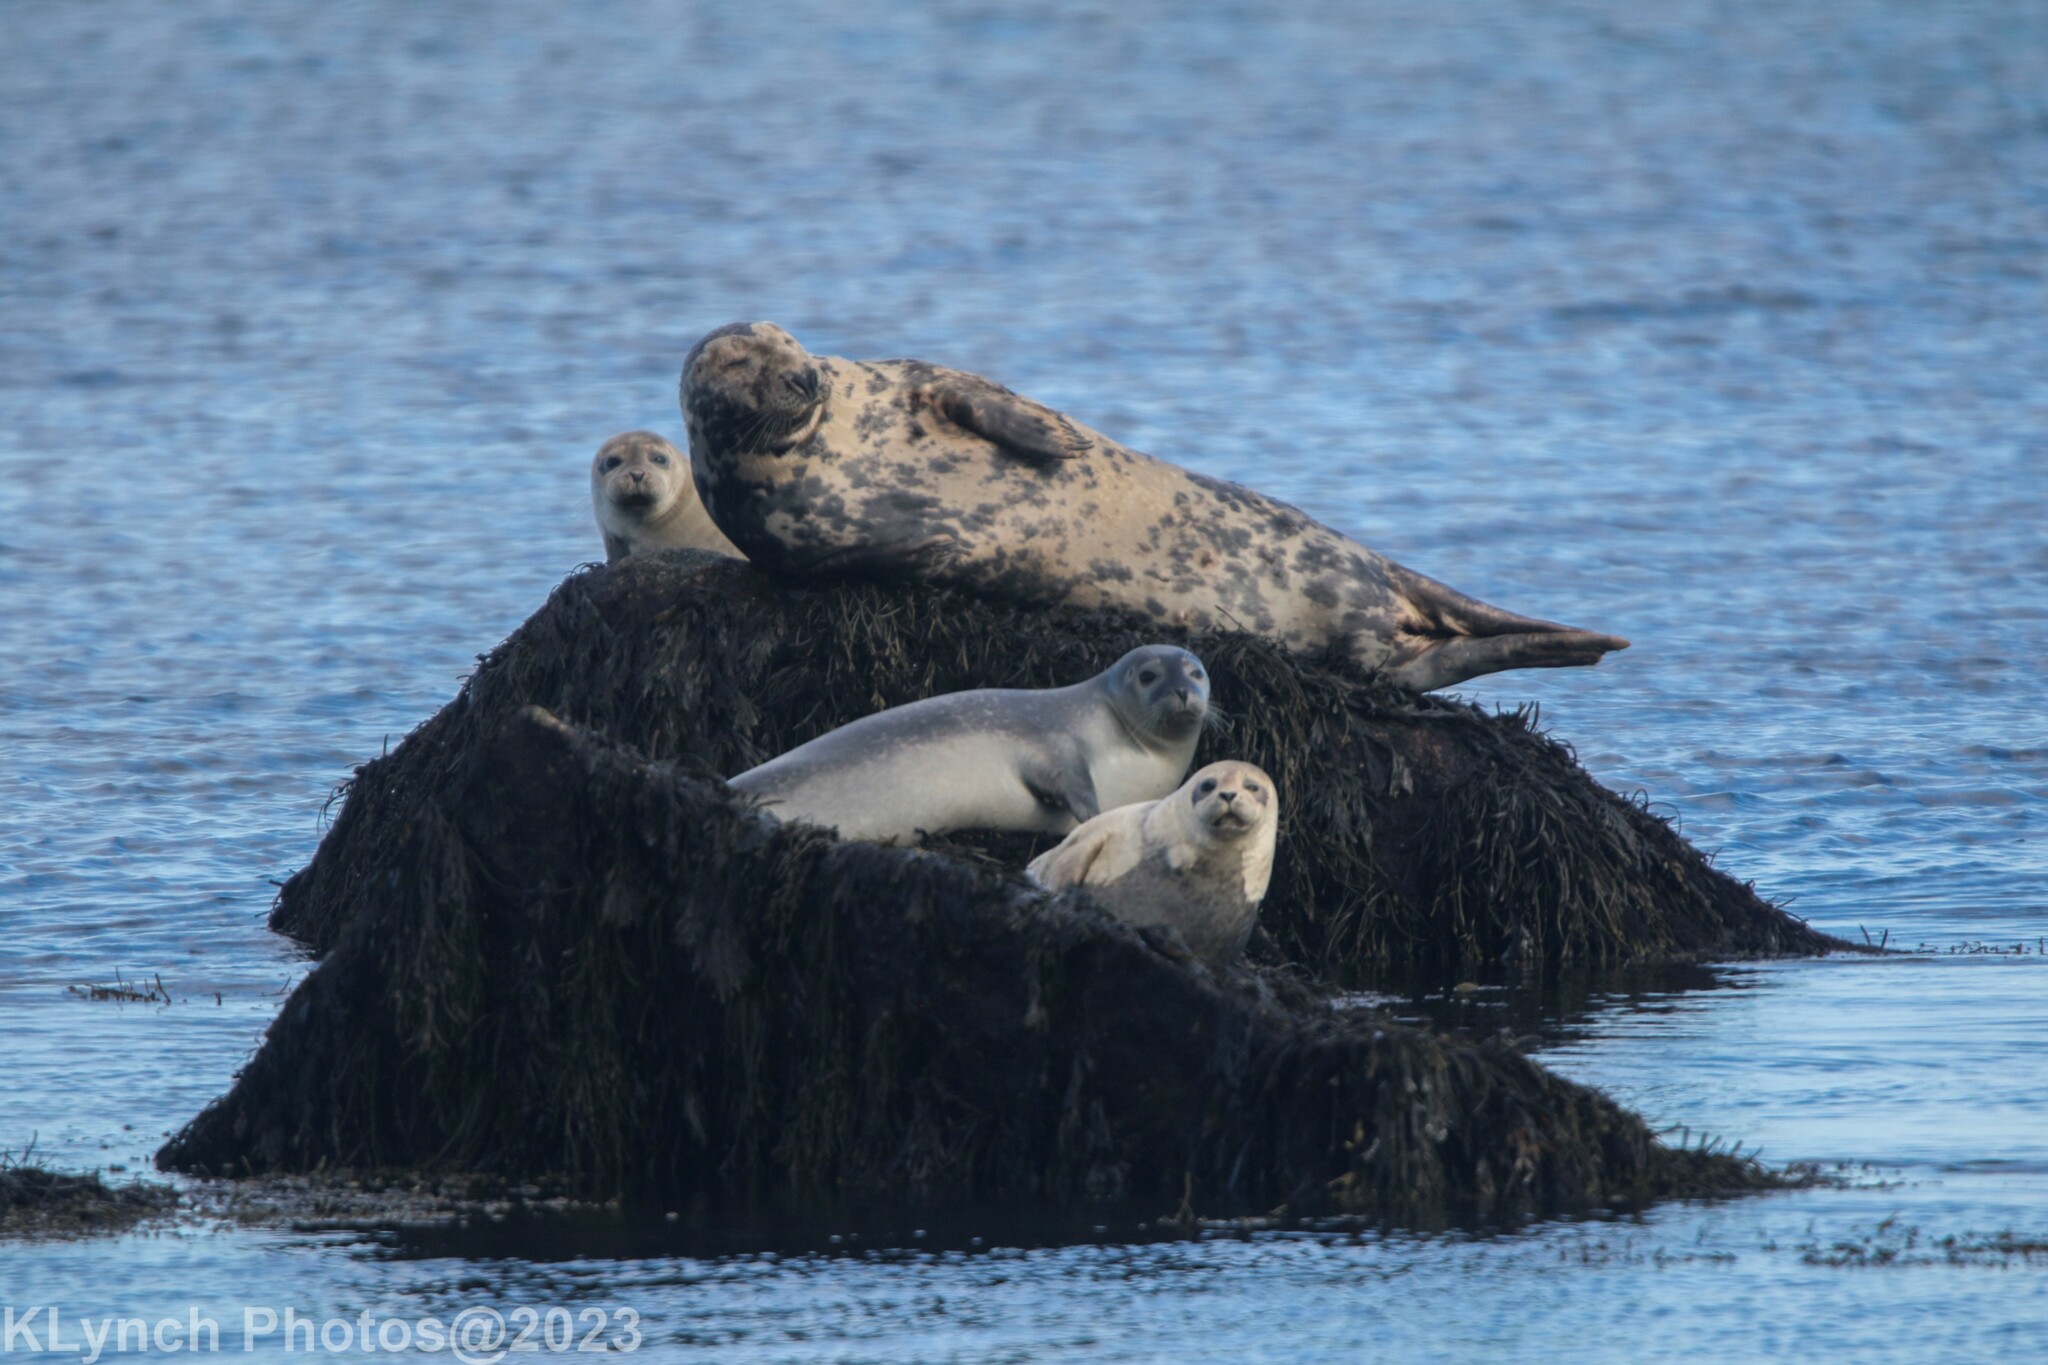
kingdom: Animalia
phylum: Chordata
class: Mammalia
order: Carnivora
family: Phocidae
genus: Phoca
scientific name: Phoca vitulina
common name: Harbor seal
